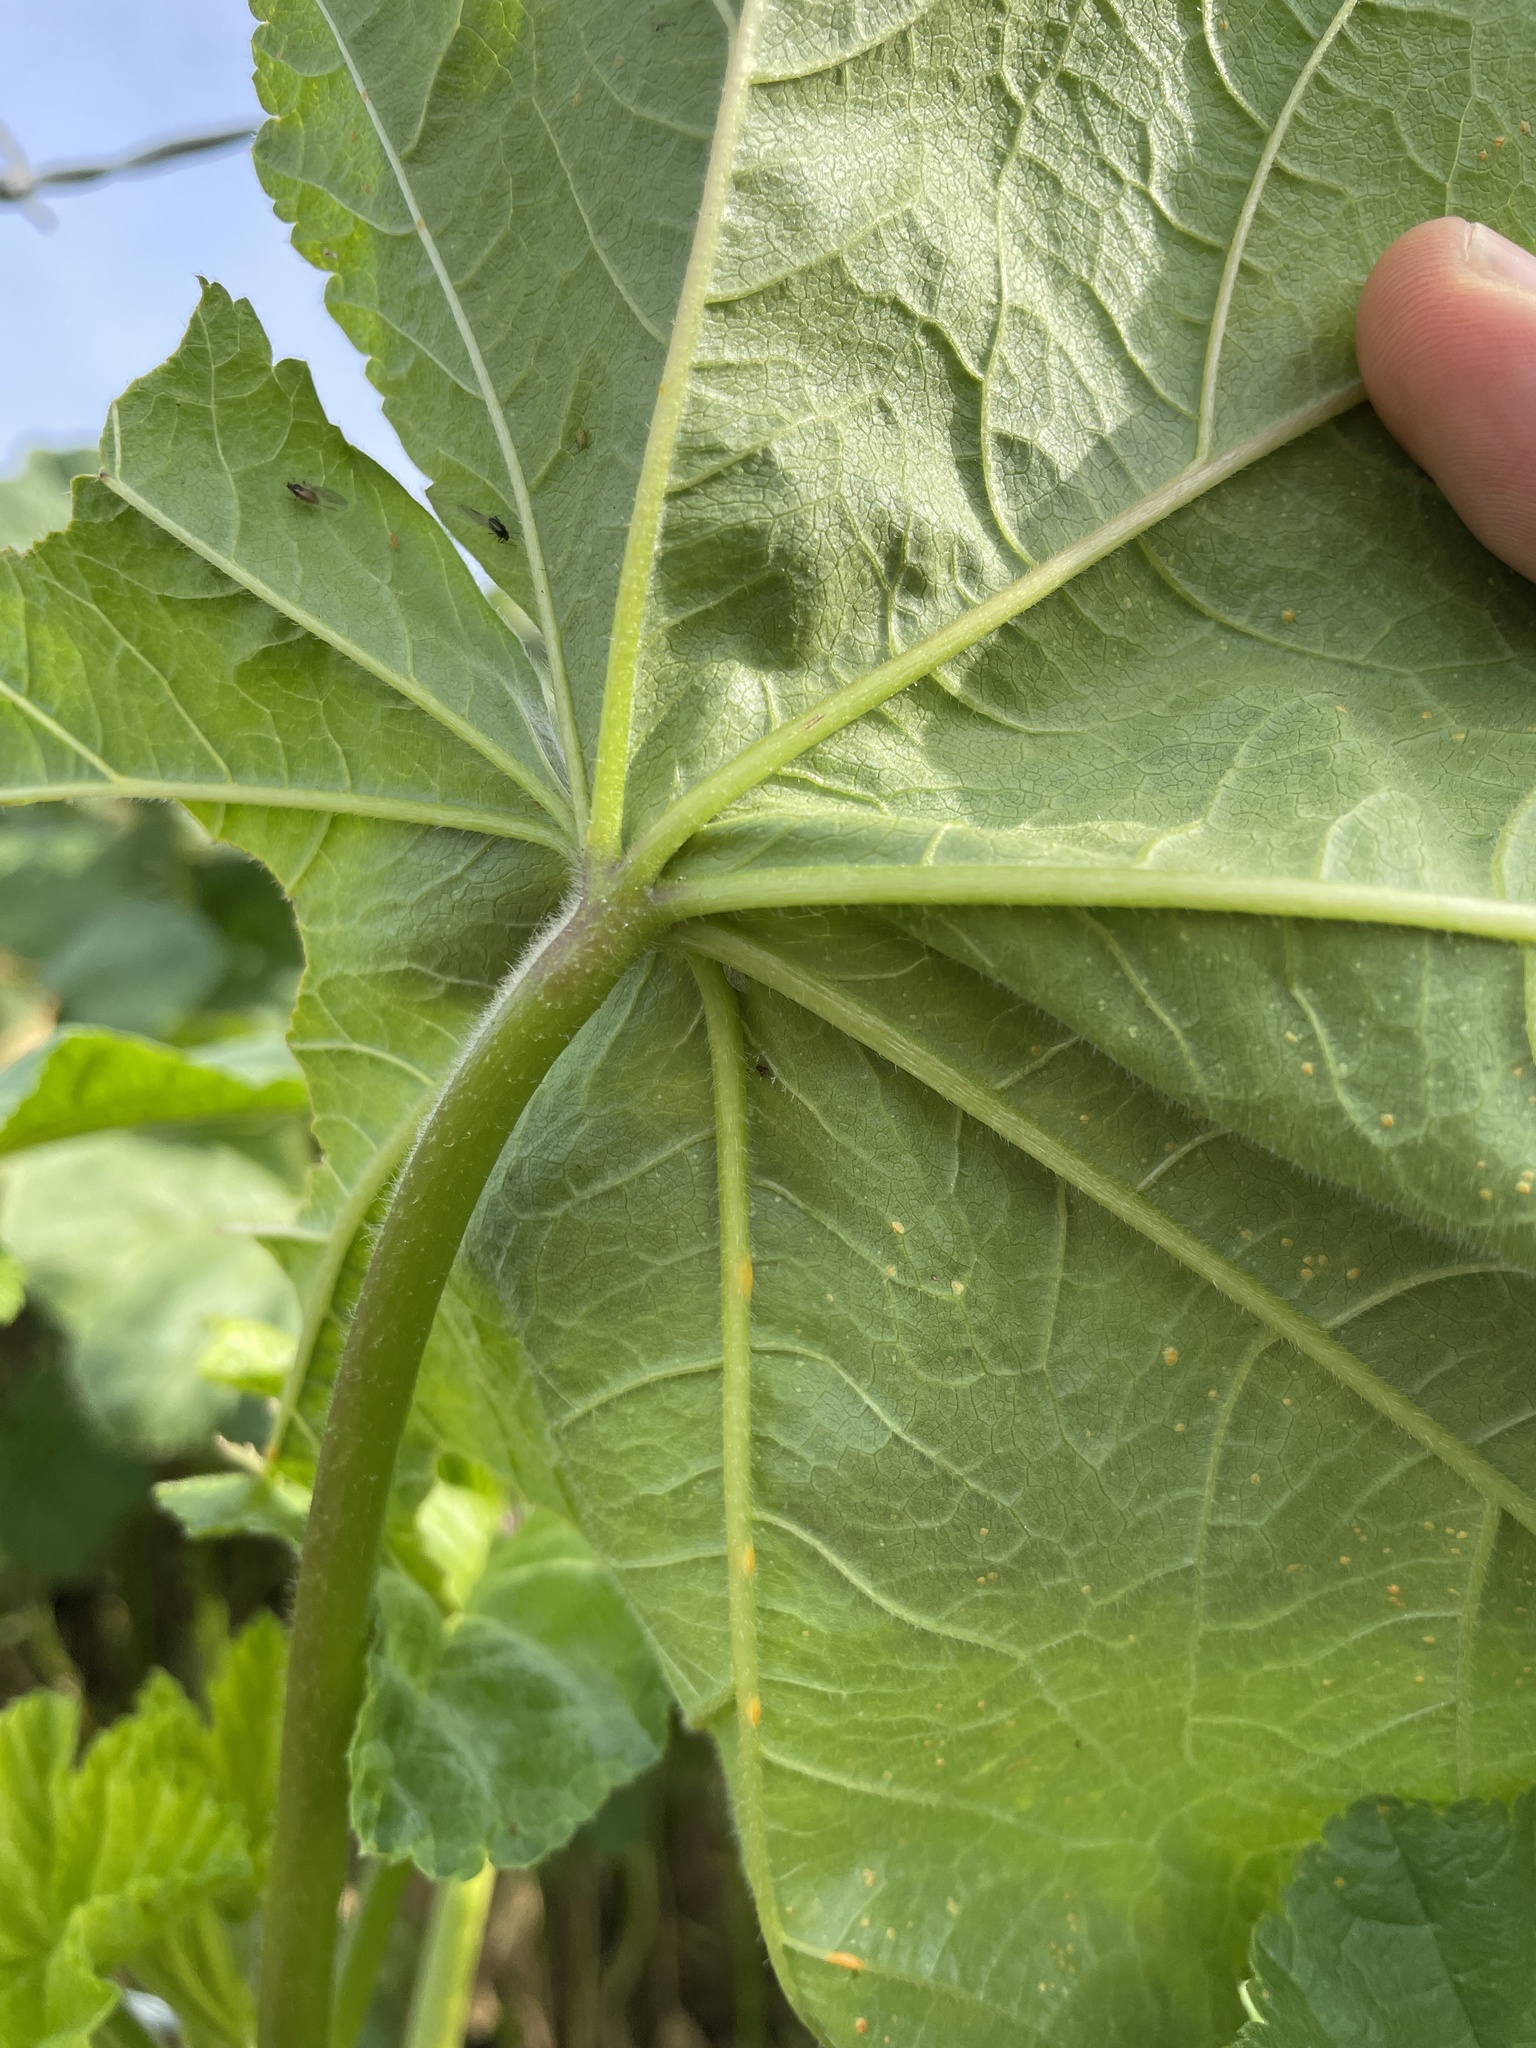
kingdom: Plantae
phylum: Tracheophyta
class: Magnoliopsida
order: Malvales
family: Malvaceae
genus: Malva
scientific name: Malva
